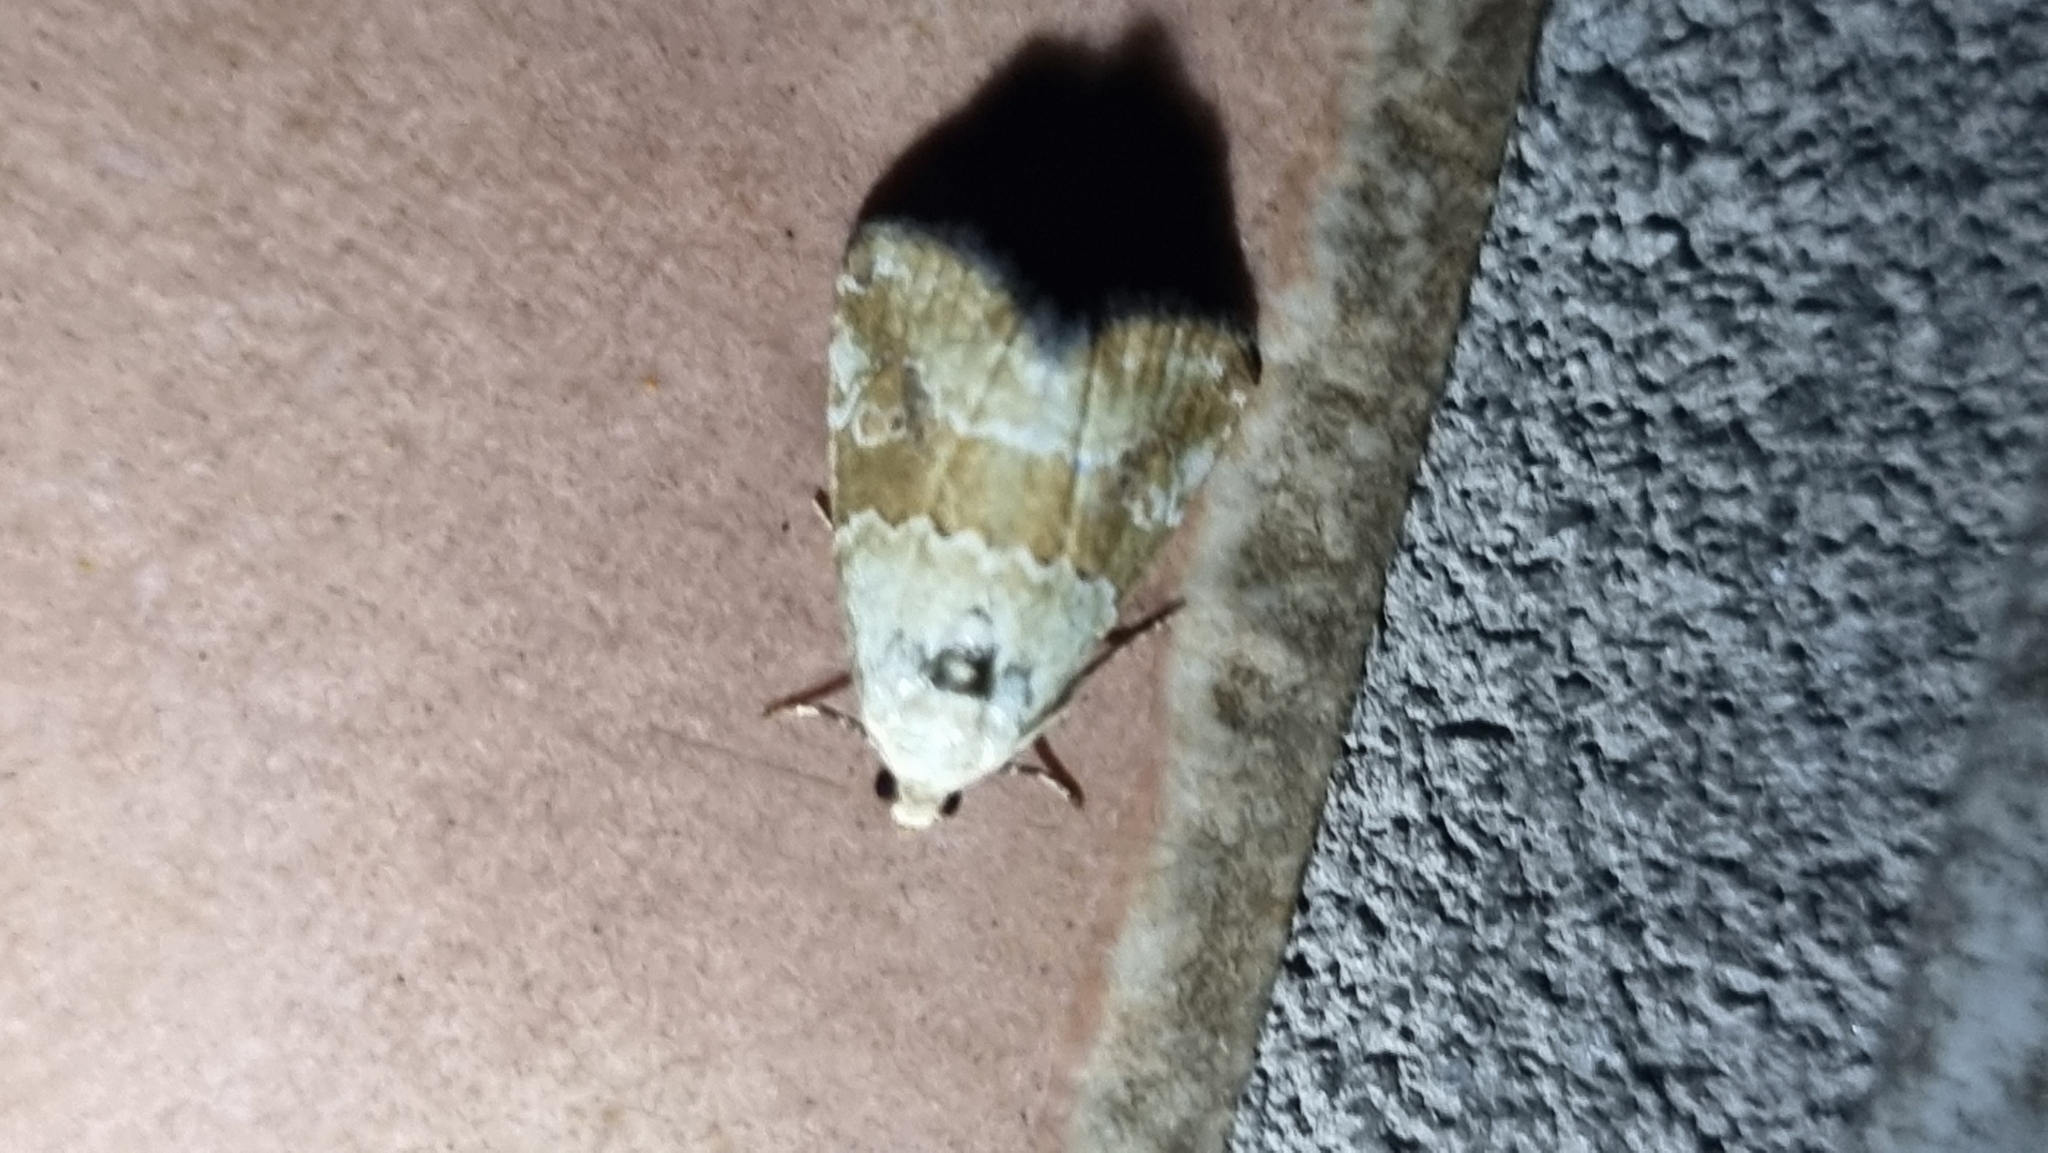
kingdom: Animalia
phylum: Arthropoda
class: Insecta
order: Lepidoptera
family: Noctuidae
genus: Maliattha
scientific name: Maliattha amorpha
